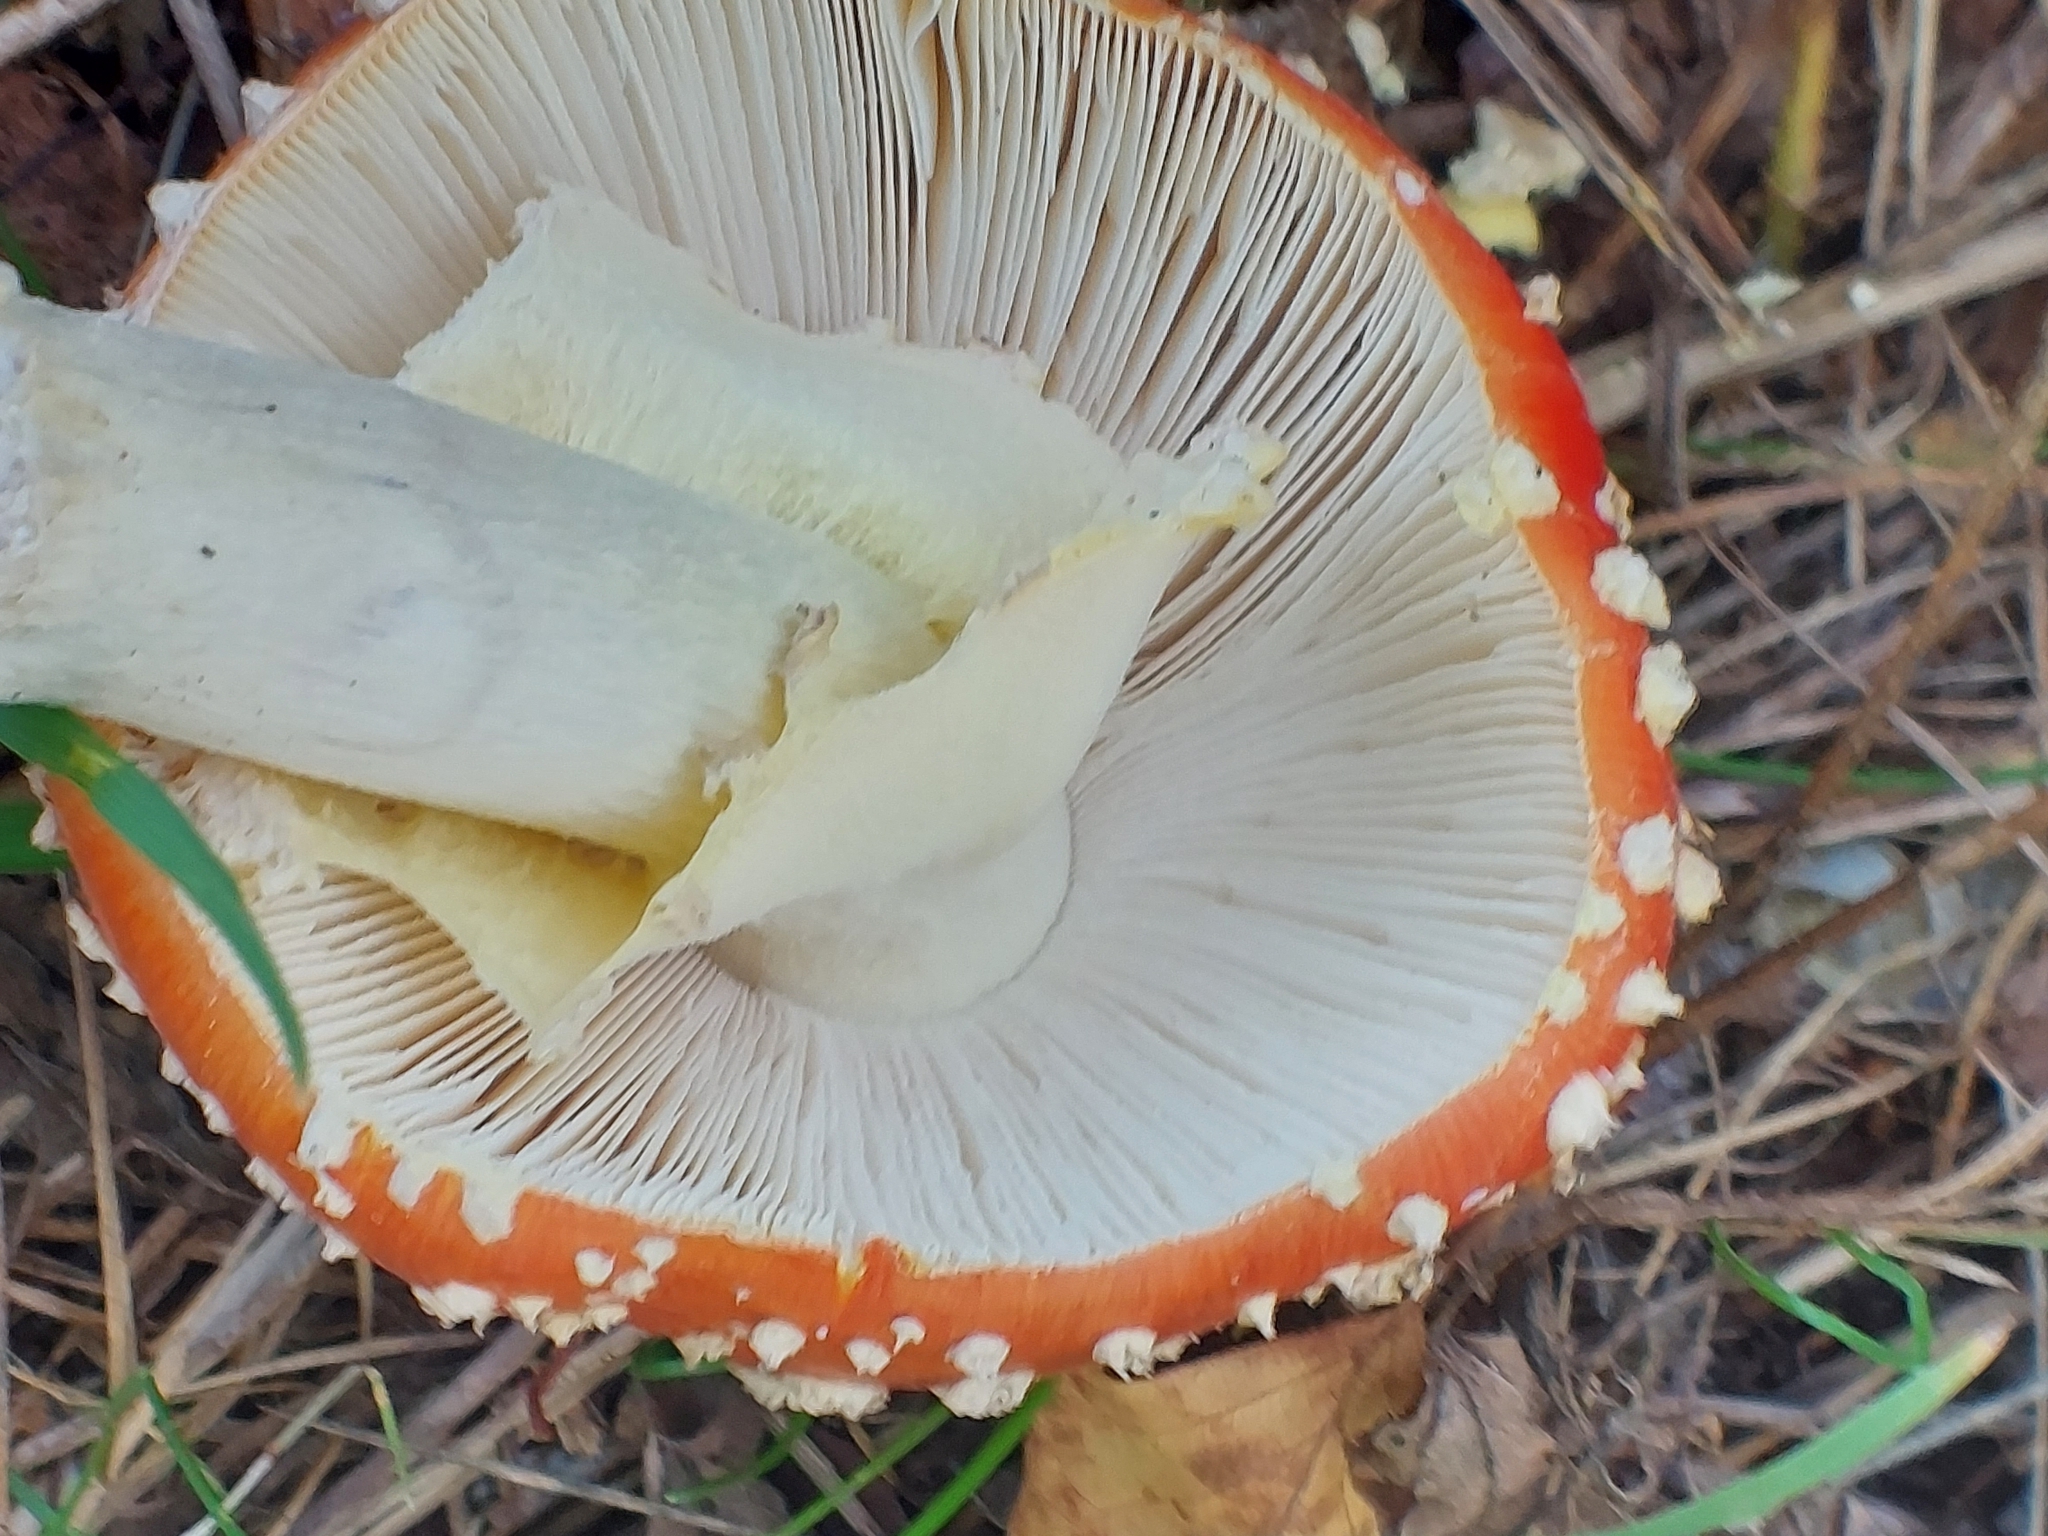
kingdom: Fungi
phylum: Basidiomycota
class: Agaricomycetes
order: Agaricales
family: Amanitaceae
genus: Amanita
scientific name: Amanita muscaria
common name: Fly agaric
